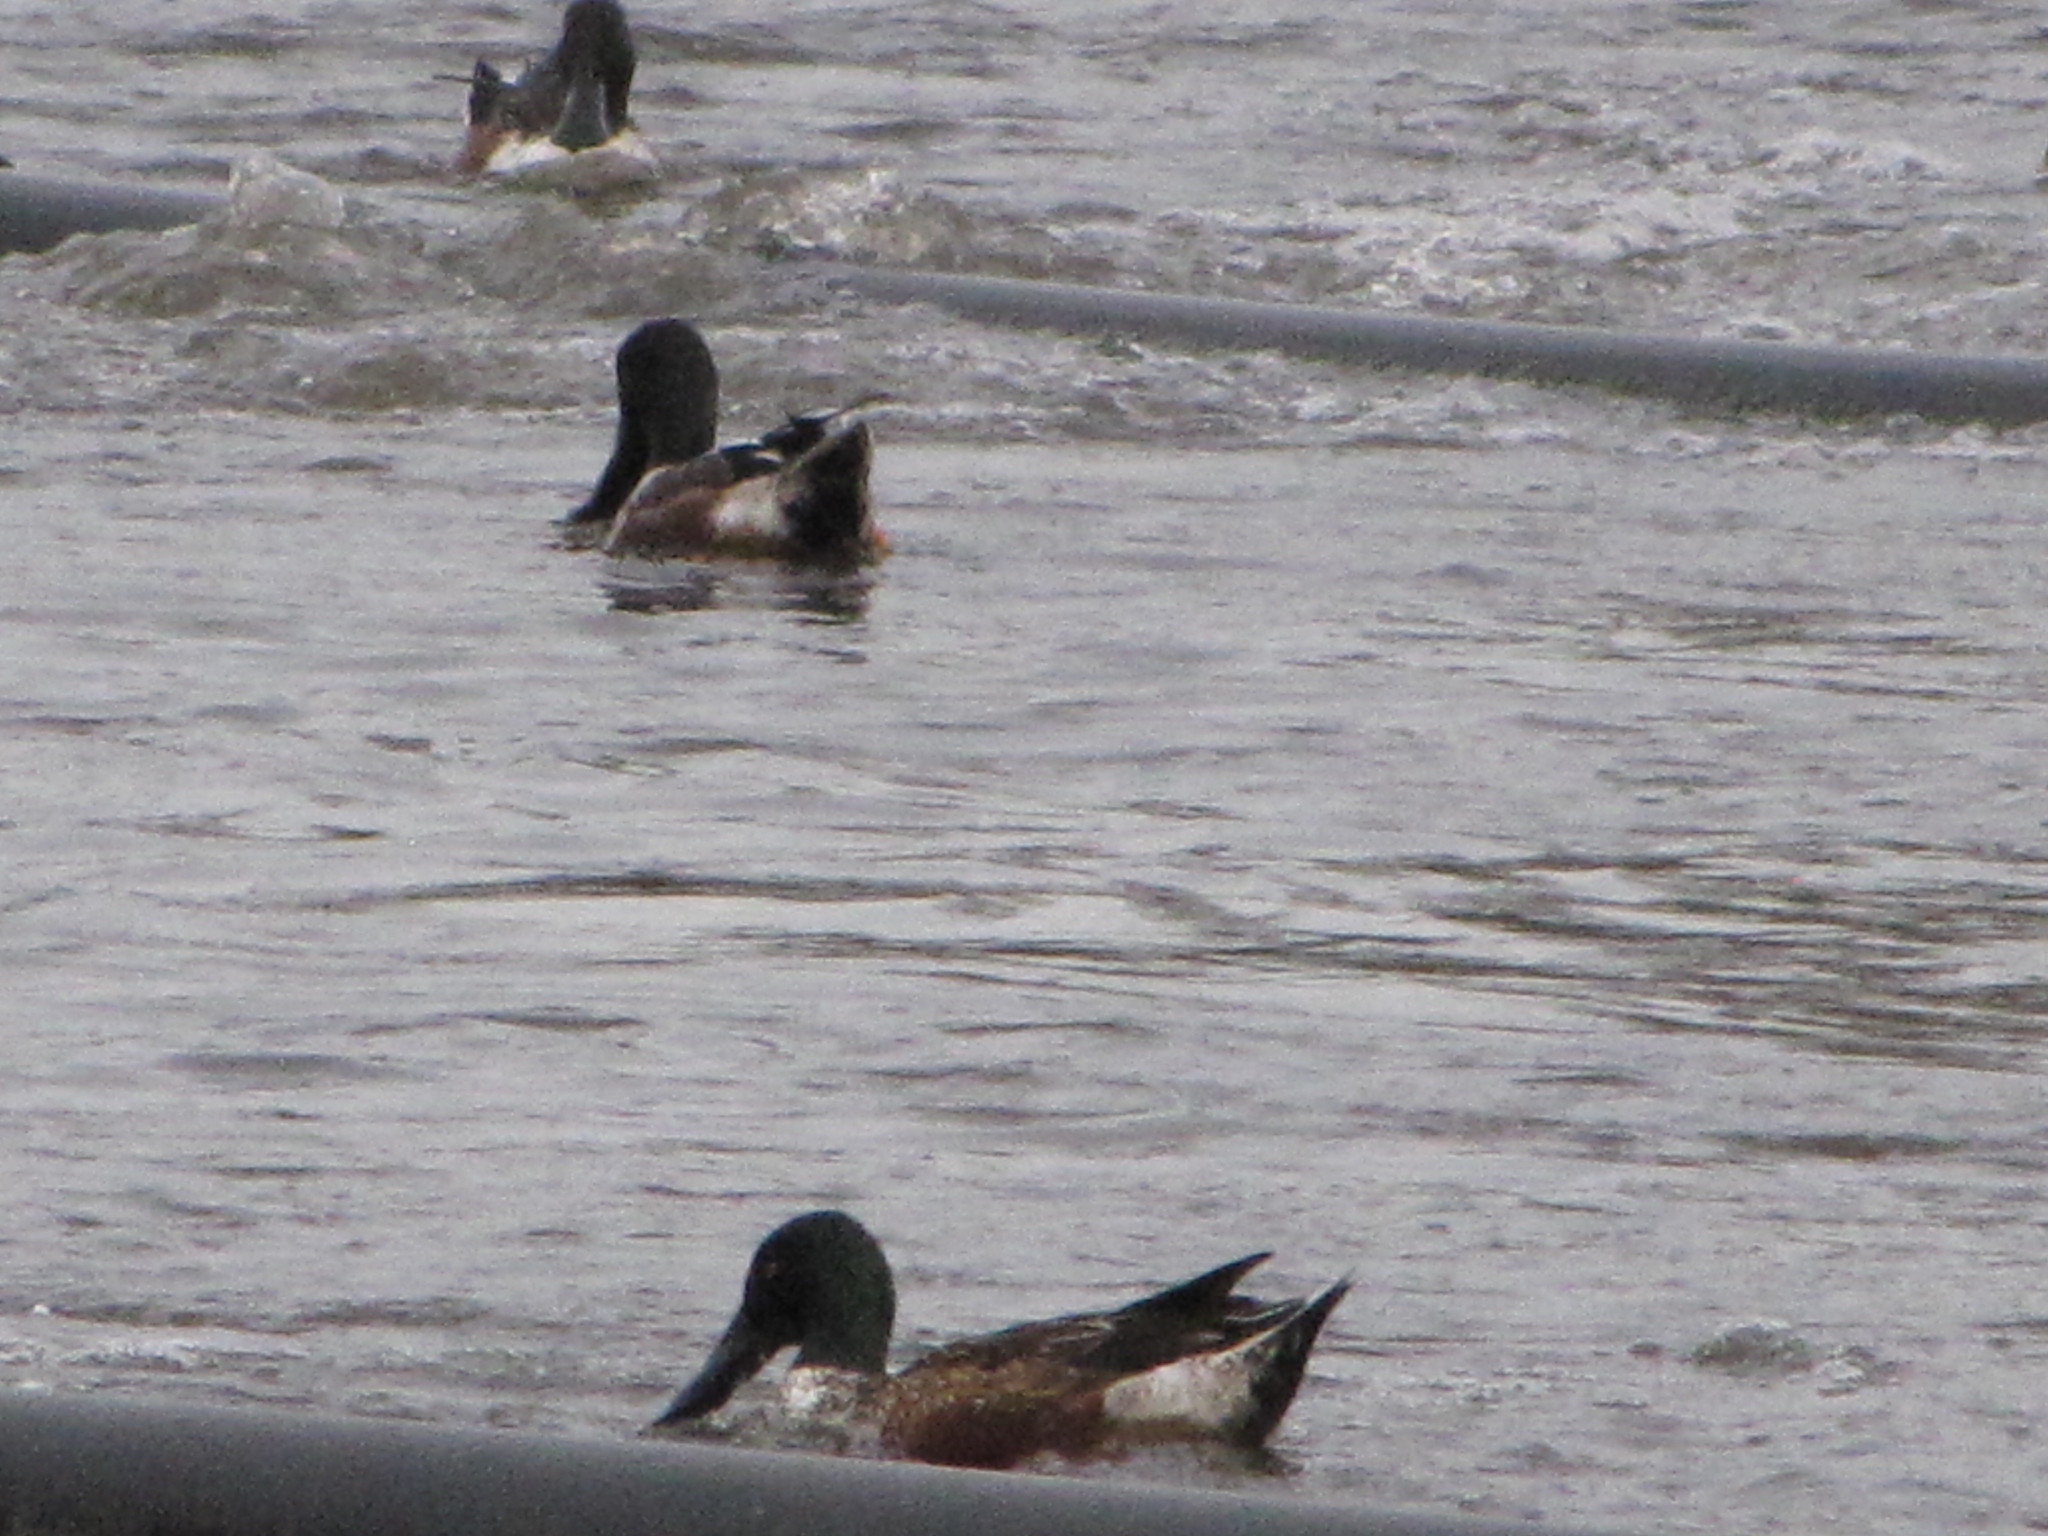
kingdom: Animalia
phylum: Chordata
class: Aves
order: Anseriformes
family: Anatidae
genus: Spatula
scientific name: Spatula clypeata
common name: Northern shoveler
